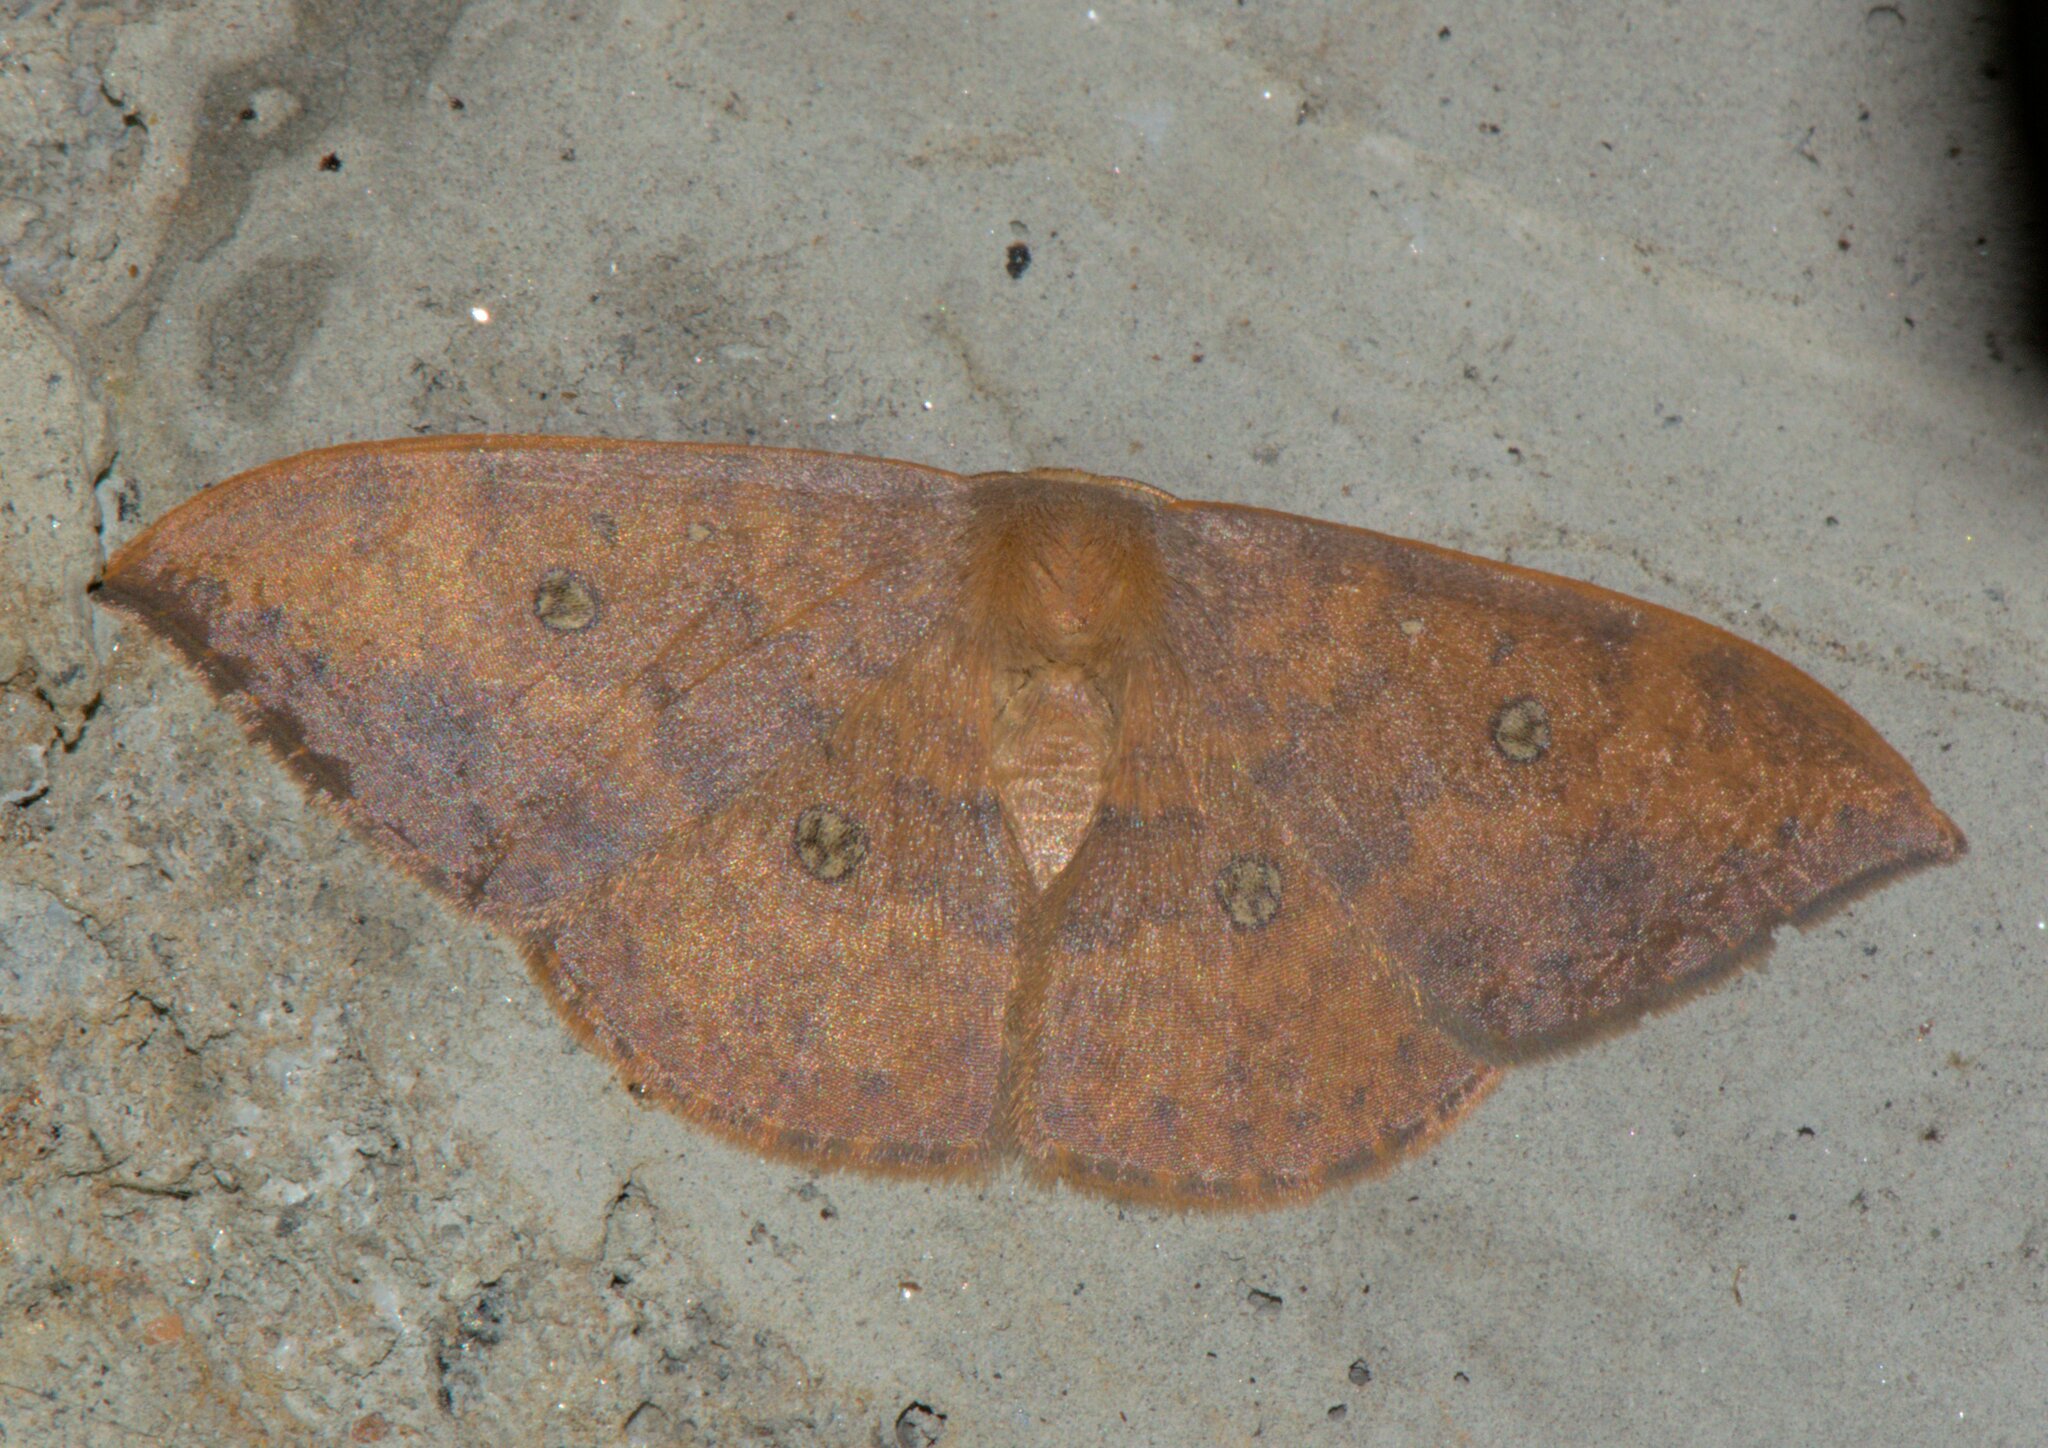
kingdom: Animalia
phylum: Arthropoda
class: Insecta
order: Lepidoptera
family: Drepanidae
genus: Agnidra
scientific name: Agnidra discispilaria
